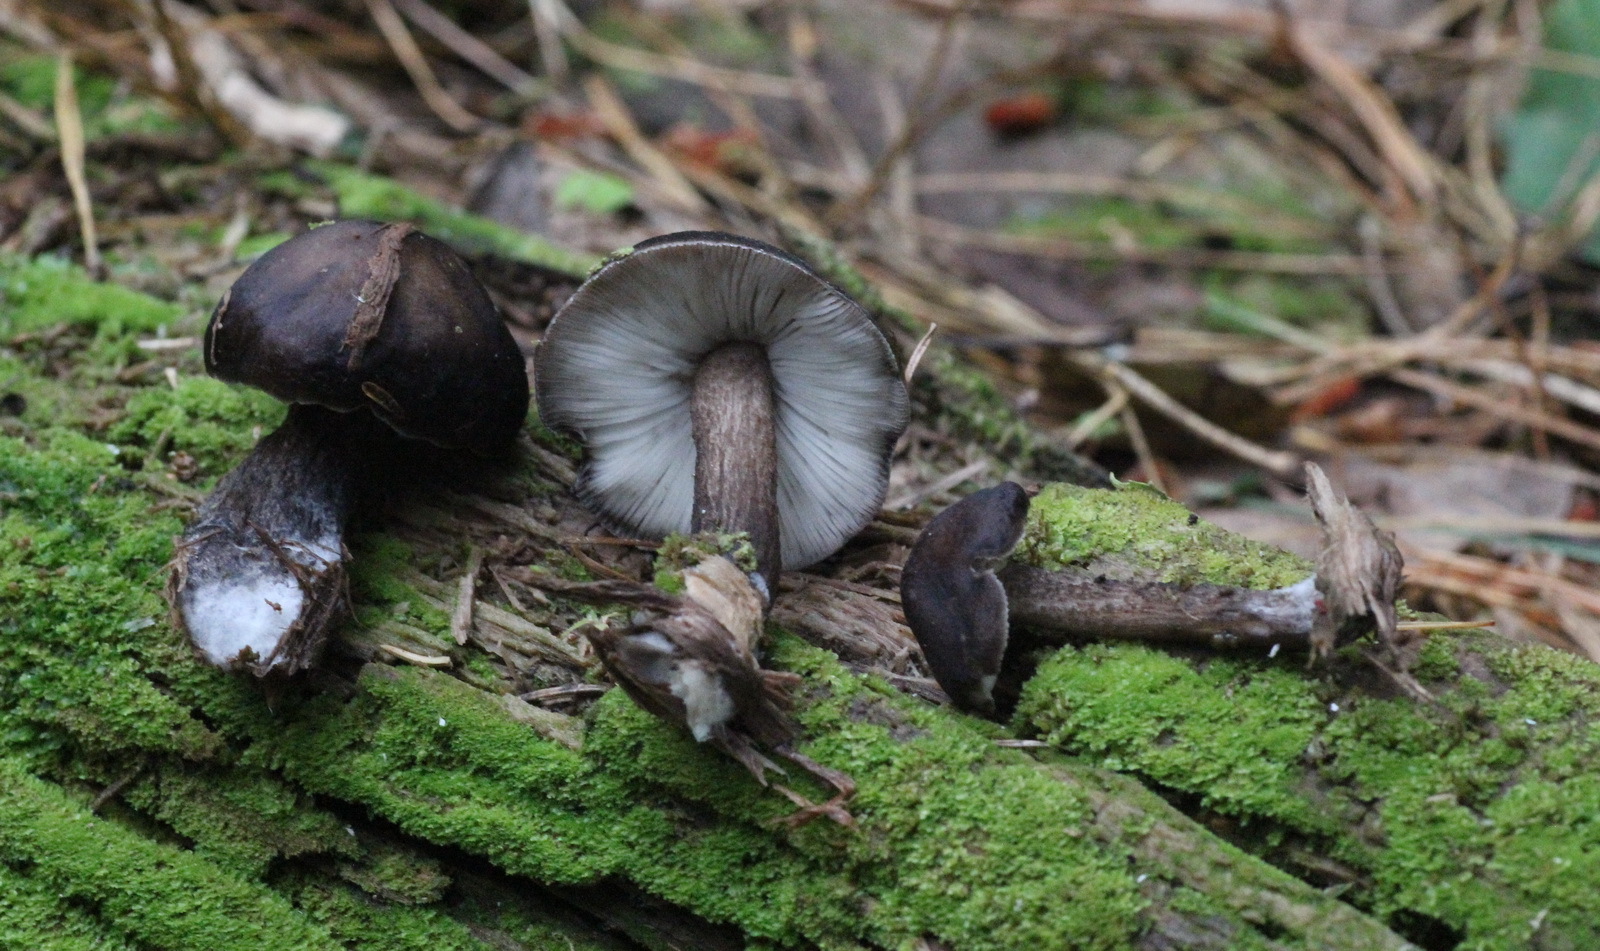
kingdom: Fungi
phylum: Basidiomycota
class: Agaricomycetes
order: Agaricales
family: Pluteaceae
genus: Pluteus
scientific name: Pluteus atromarginatus
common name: Blackedged shield
